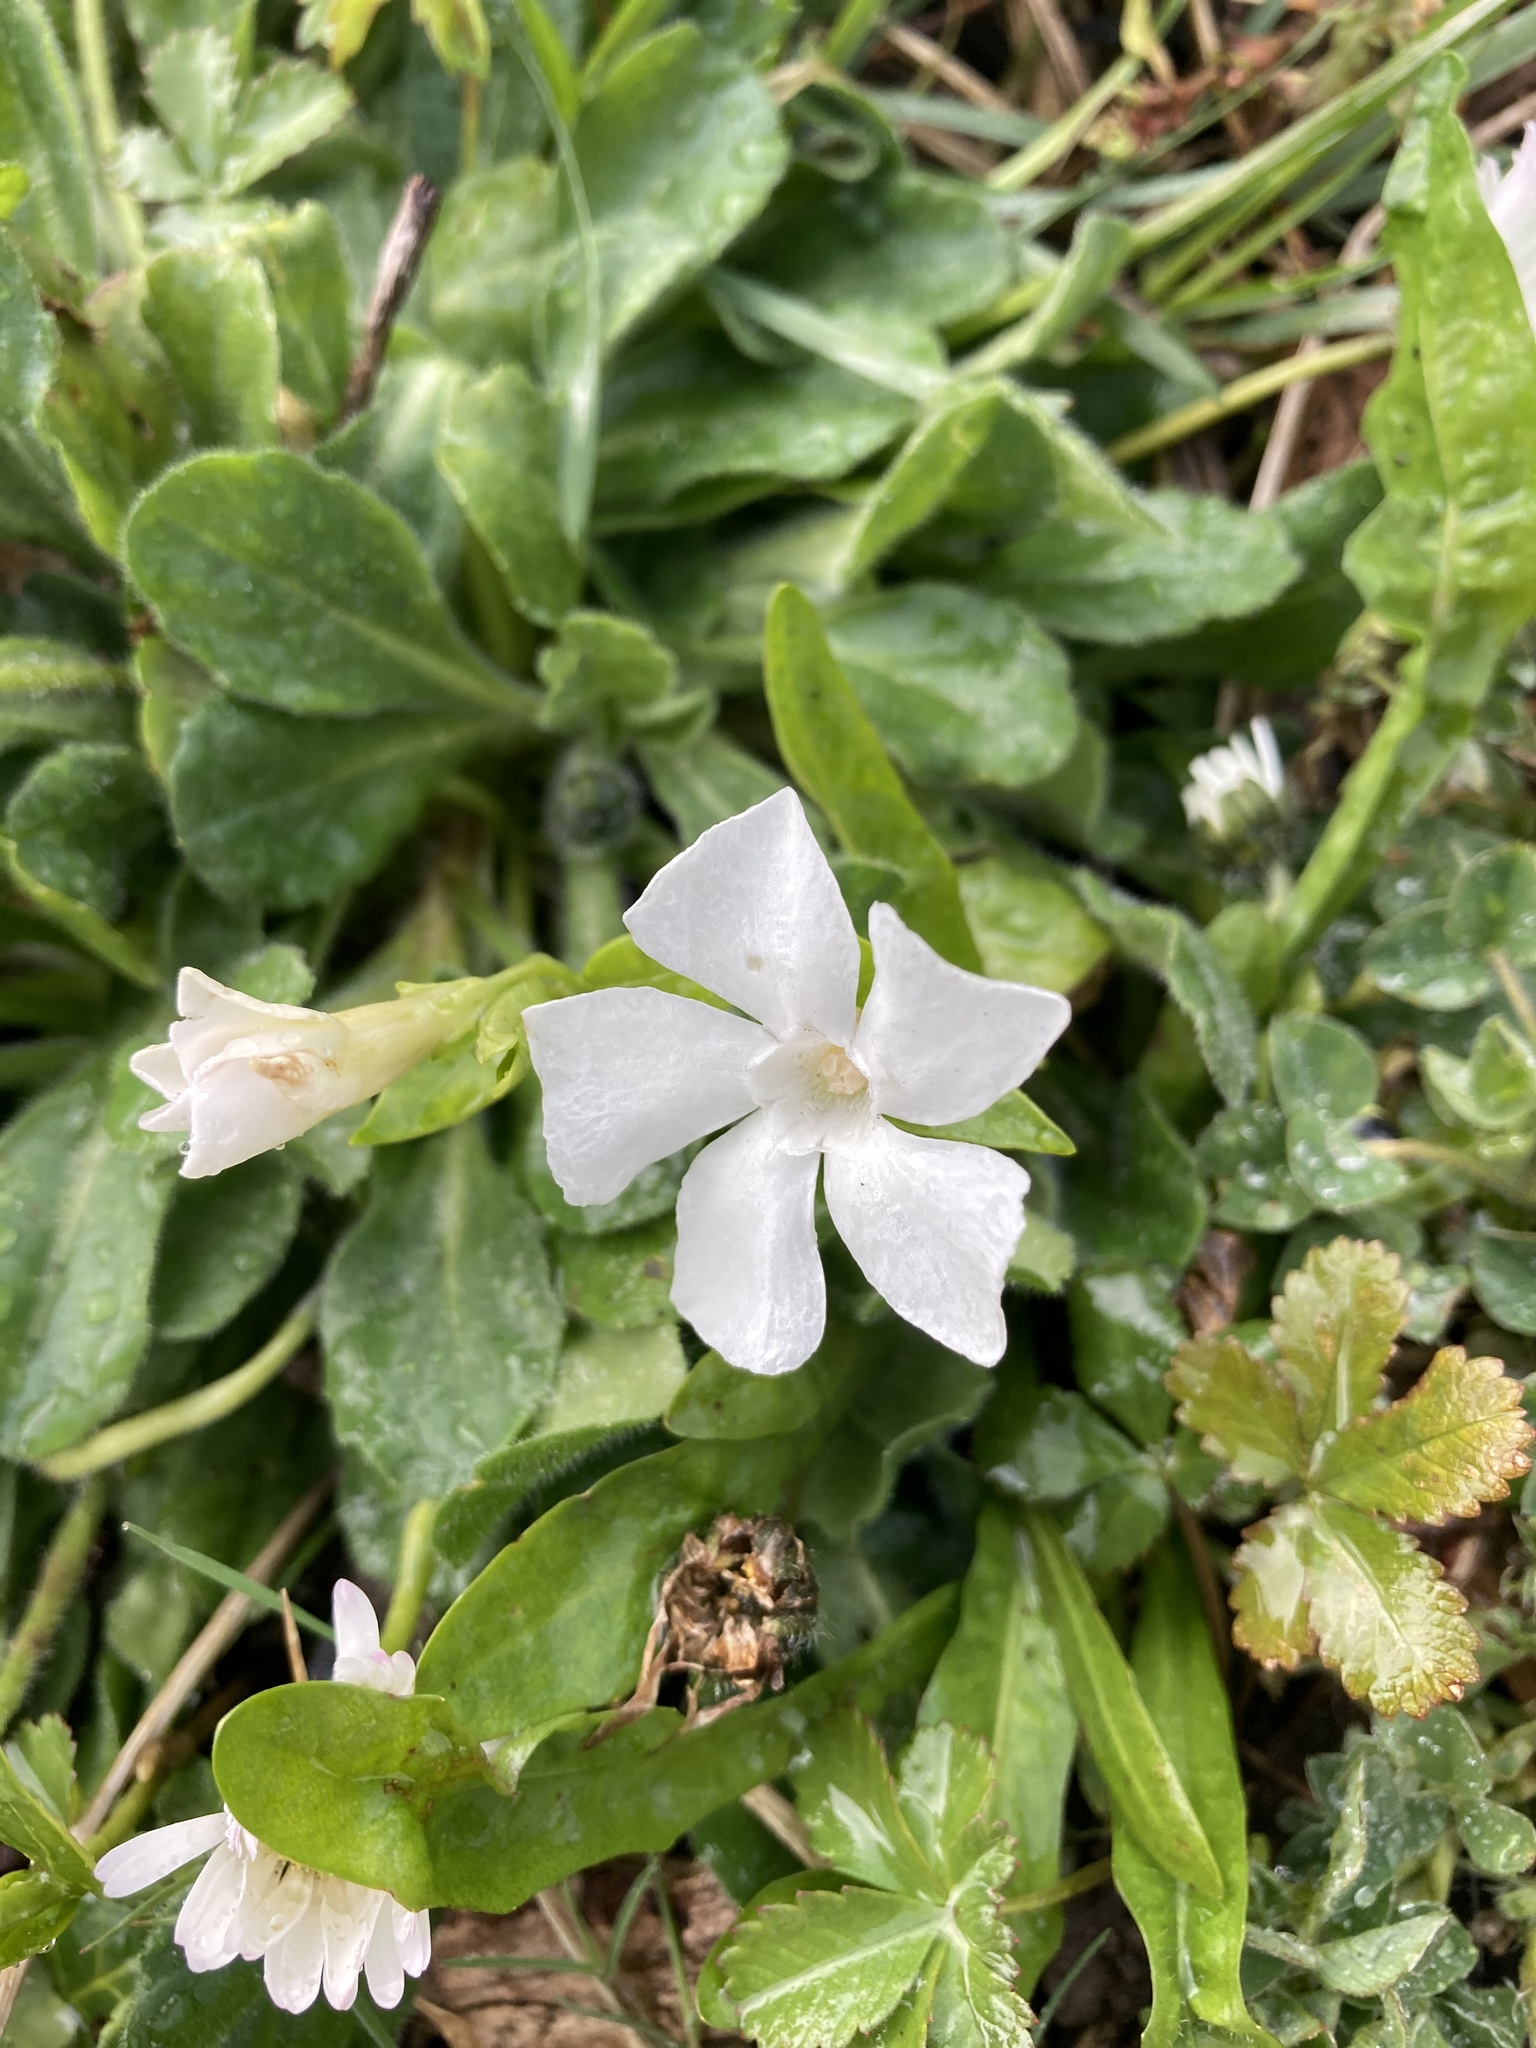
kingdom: Plantae
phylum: Tracheophyta
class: Magnoliopsida
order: Gentianales
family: Apocynaceae
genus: Vinca
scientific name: Vinca minor
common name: Lesser periwinkle
